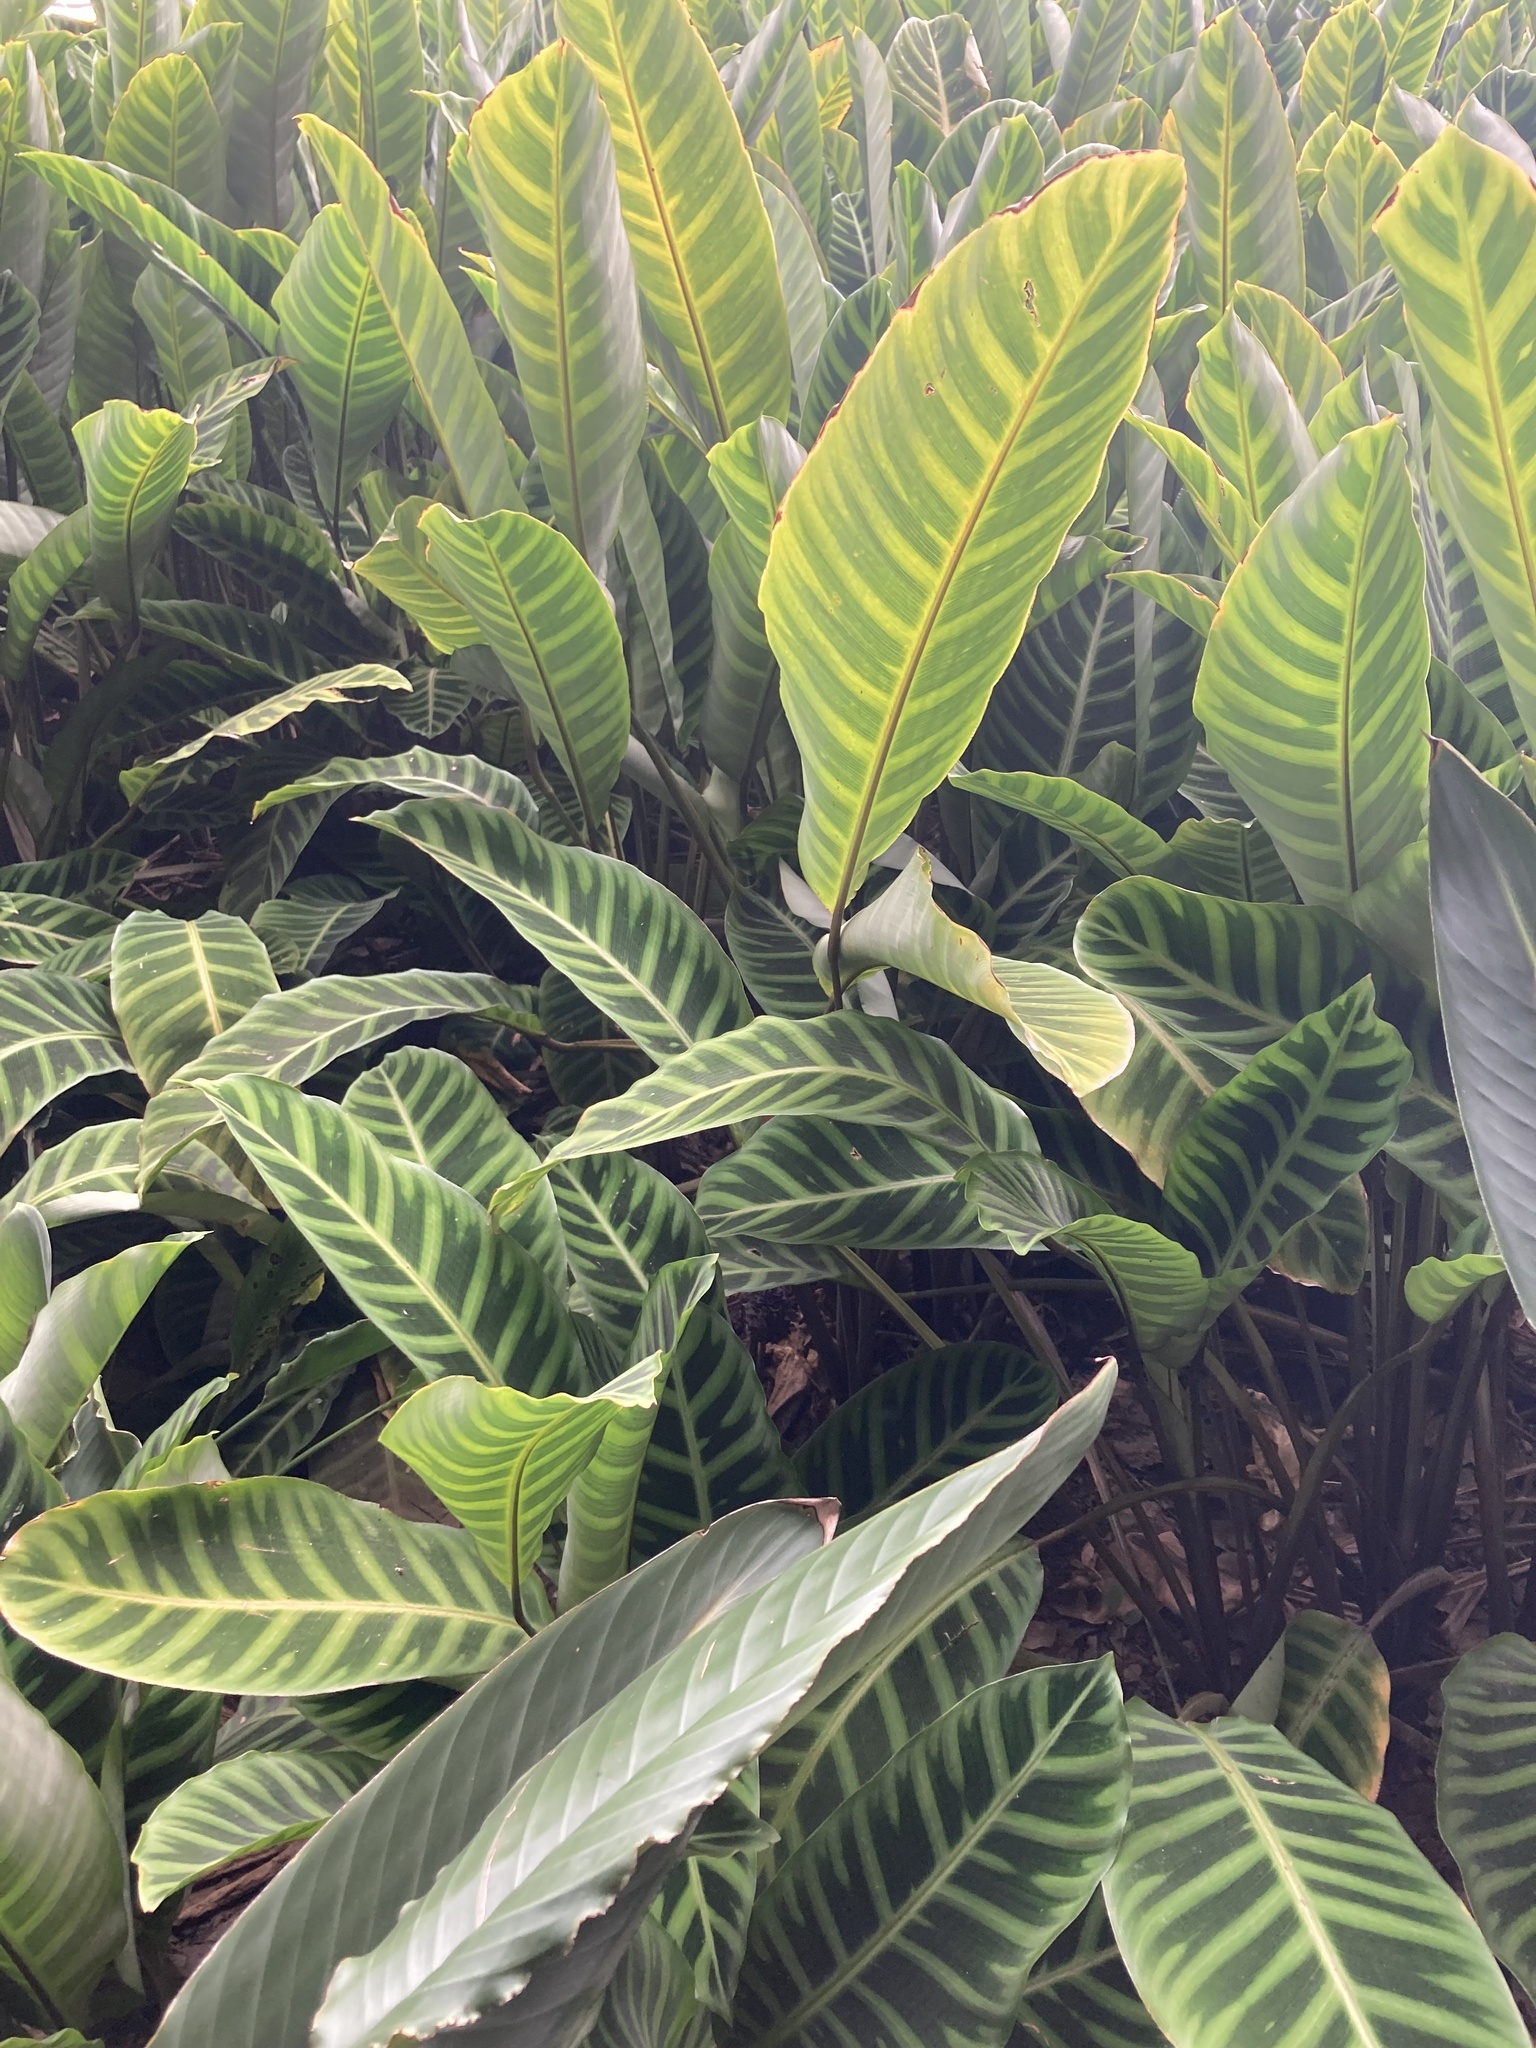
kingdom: Plantae
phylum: Tracheophyta
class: Liliopsida
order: Zingiberales
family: Marantaceae
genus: Goeppertia
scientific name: Goeppertia zebrina
